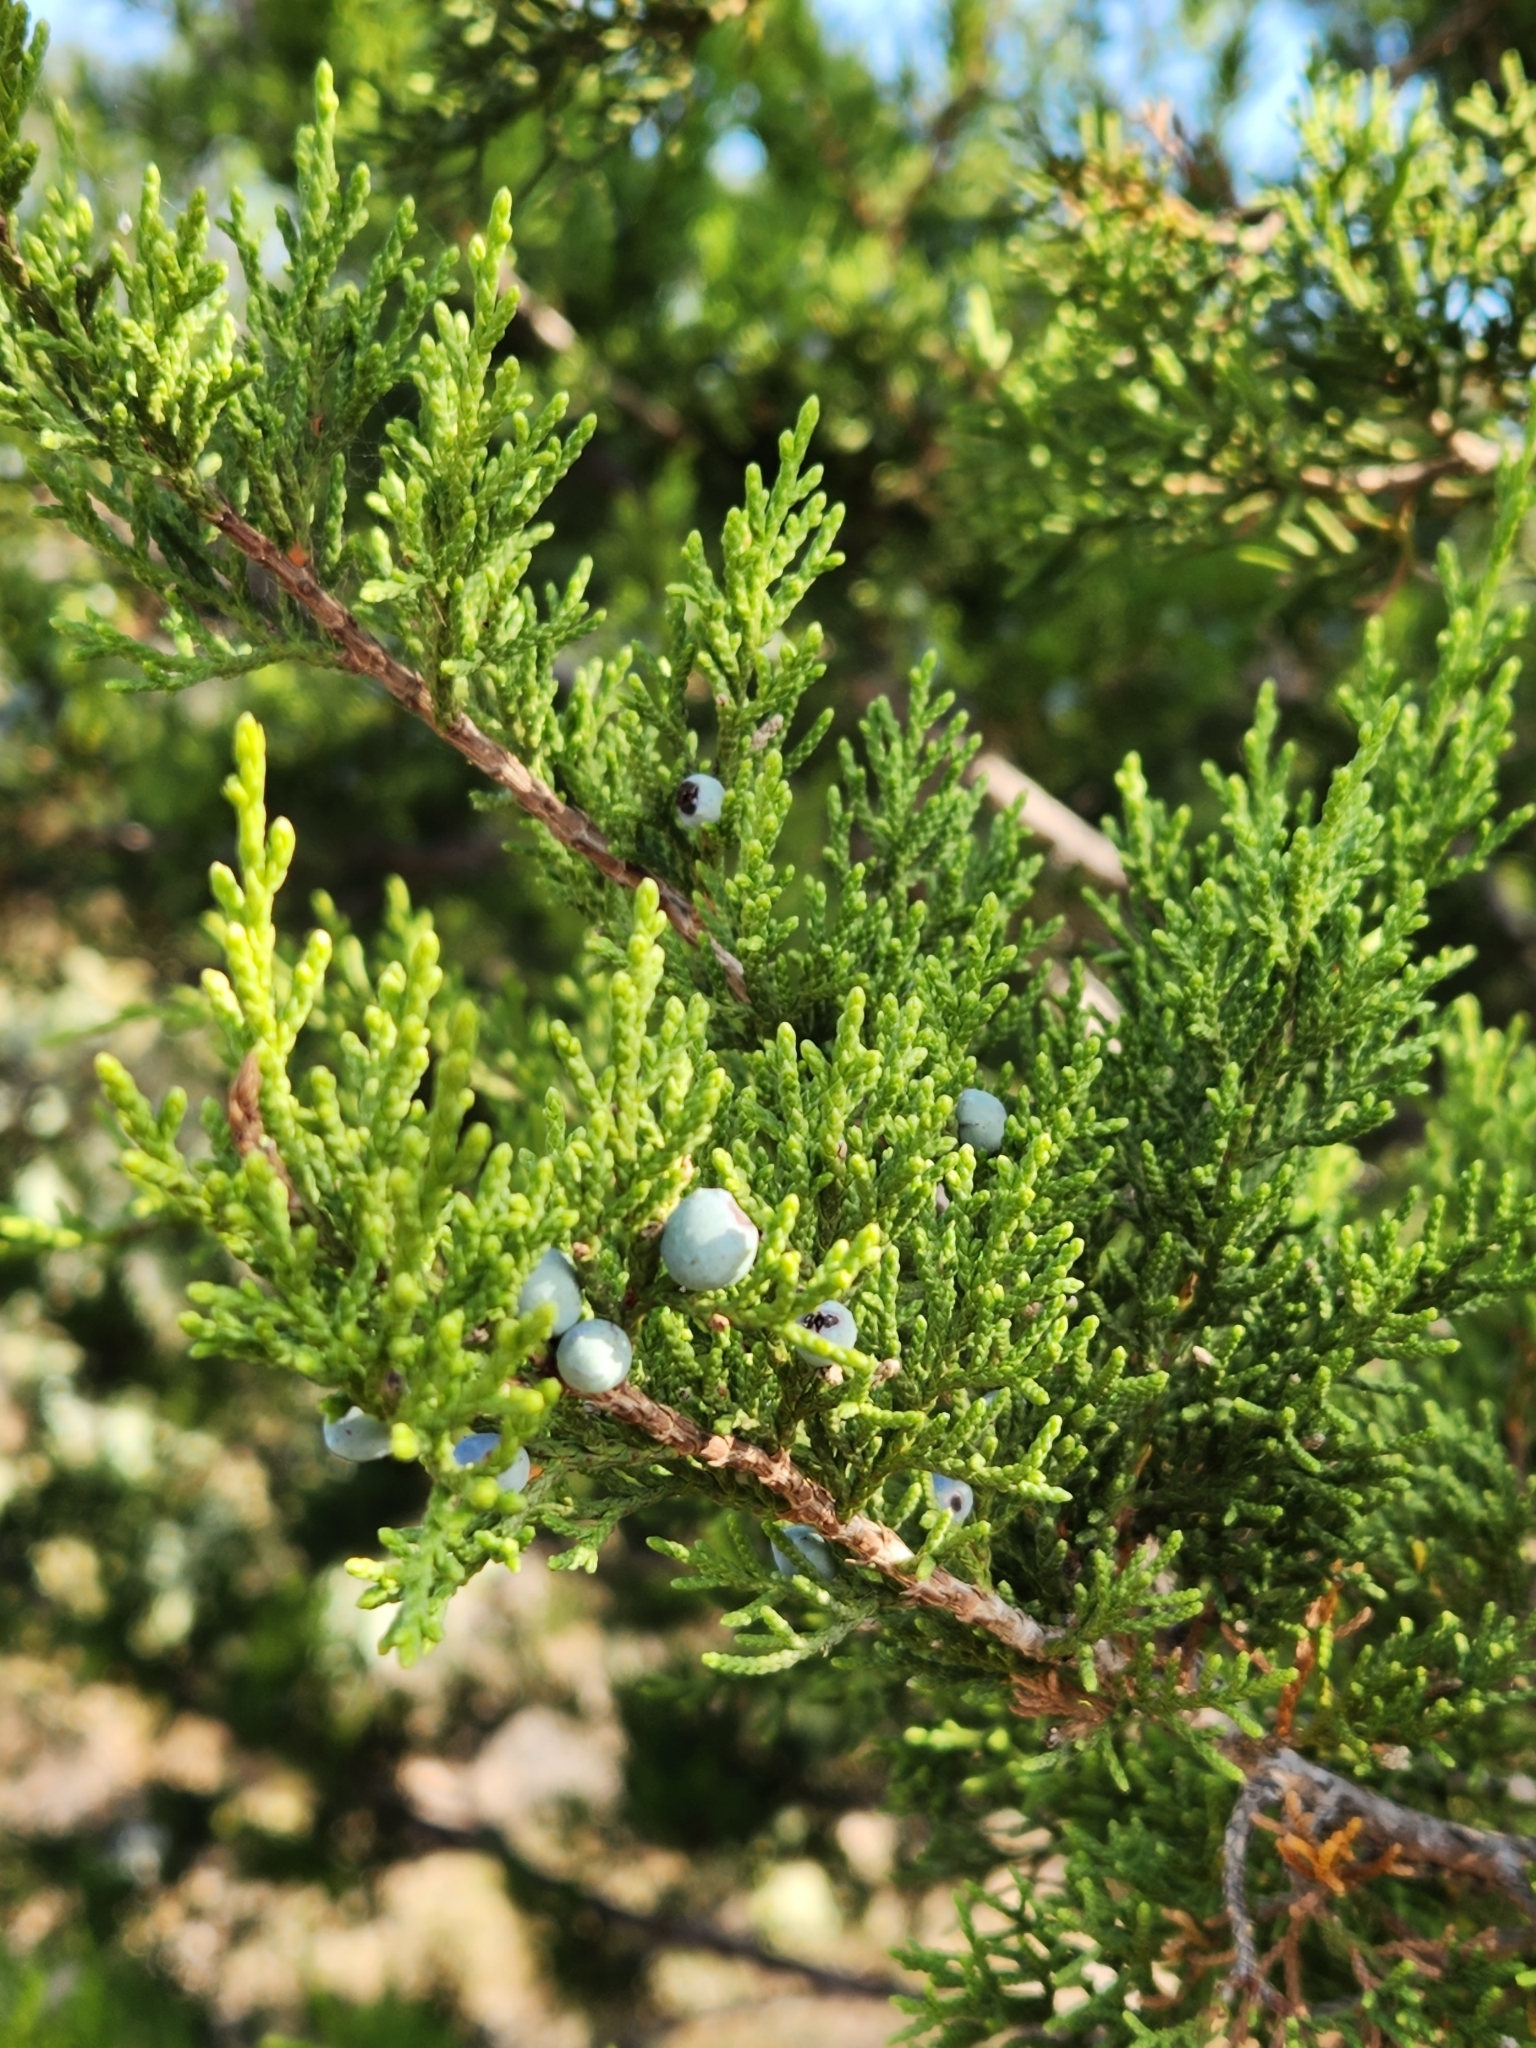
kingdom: Plantae
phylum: Tracheophyta
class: Pinopsida
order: Pinales
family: Cupressaceae
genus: Juniperus
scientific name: Juniperus ashei
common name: Mexican juniper
